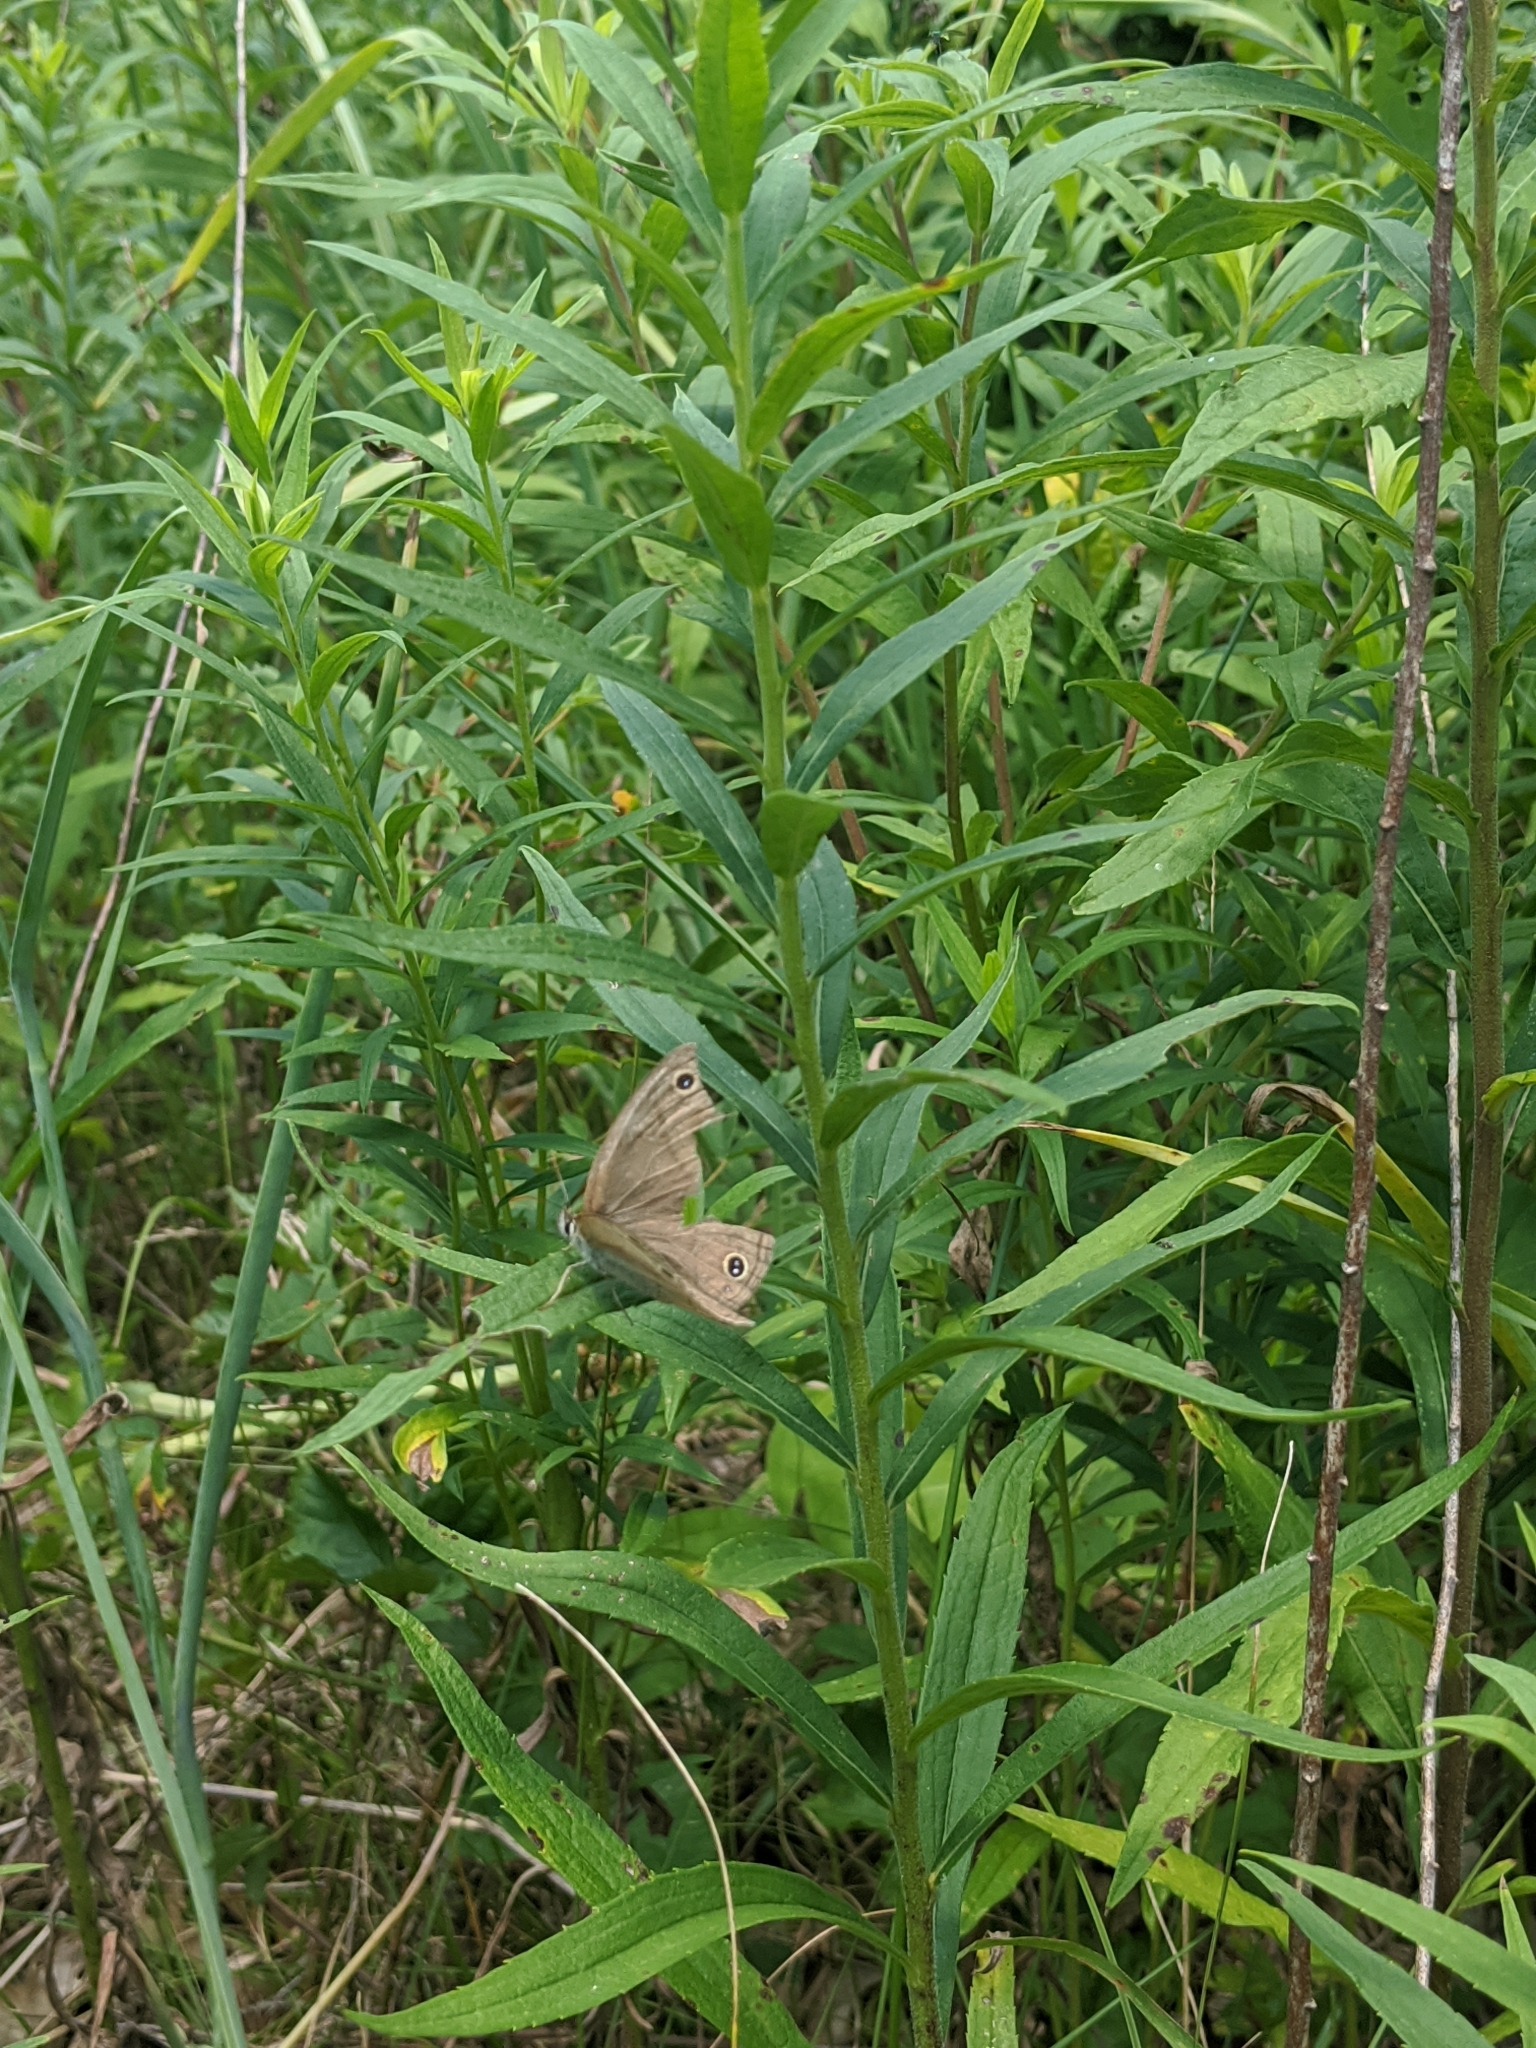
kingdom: Animalia
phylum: Arthropoda
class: Insecta
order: Lepidoptera
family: Nymphalidae
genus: Euptychia
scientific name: Euptychia cymela
